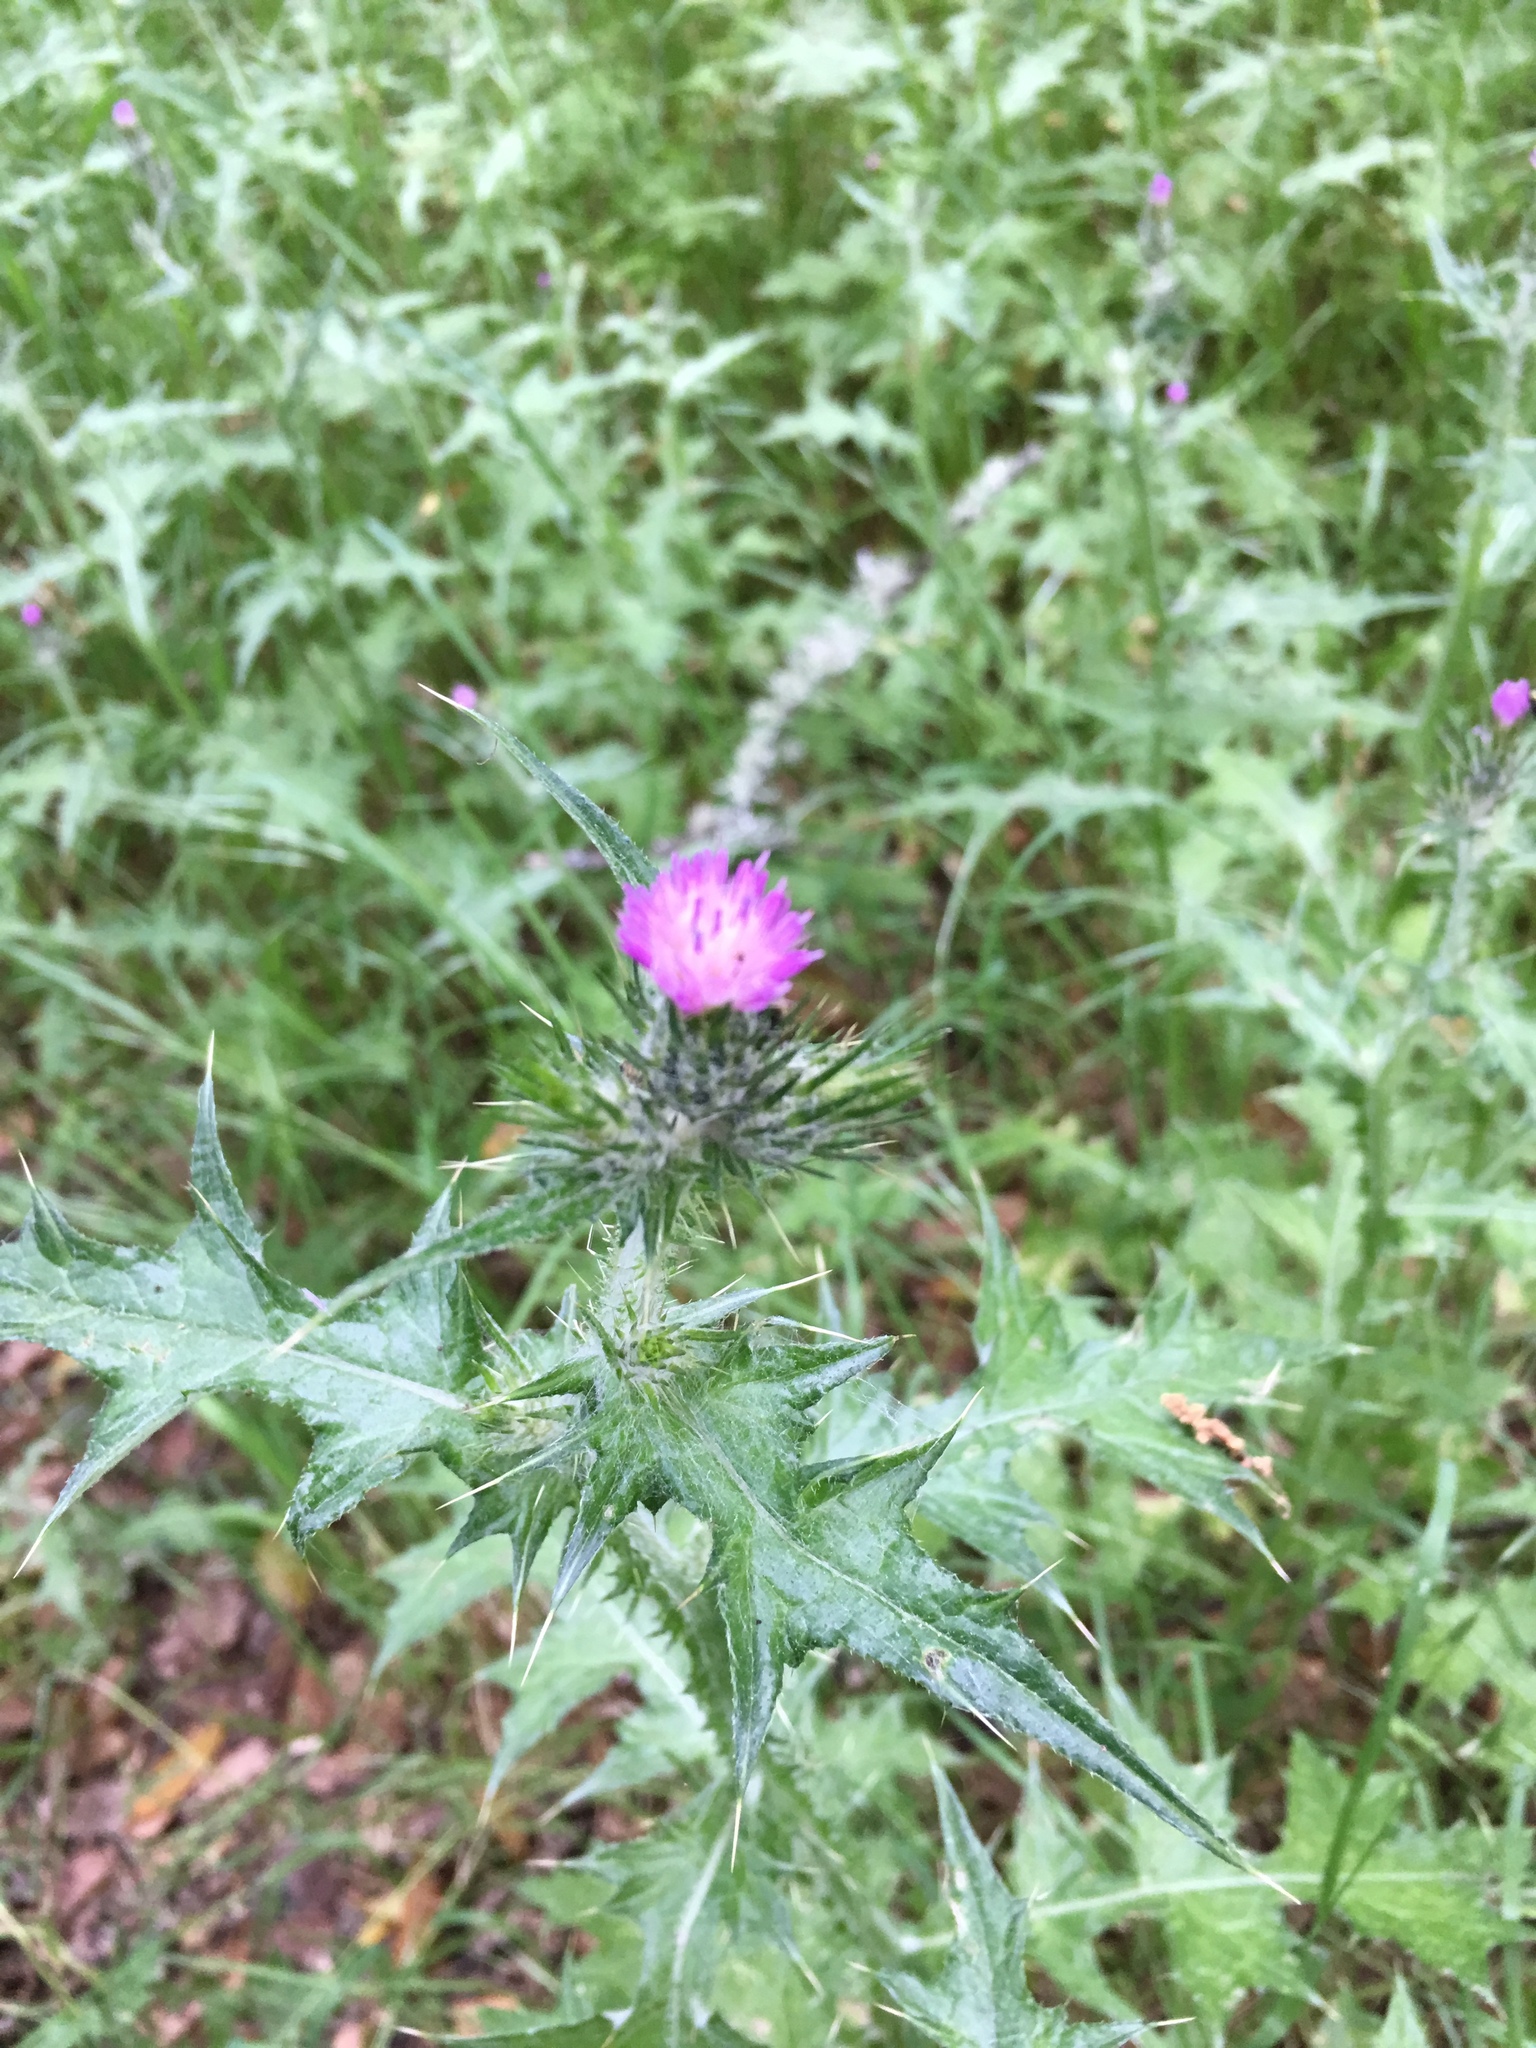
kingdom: Plantae
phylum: Tracheophyta
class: Magnoliopsida
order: Asterales
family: Asteraceae
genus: Carduus
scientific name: Carduus pycnocephalus
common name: Plymouth thistle
